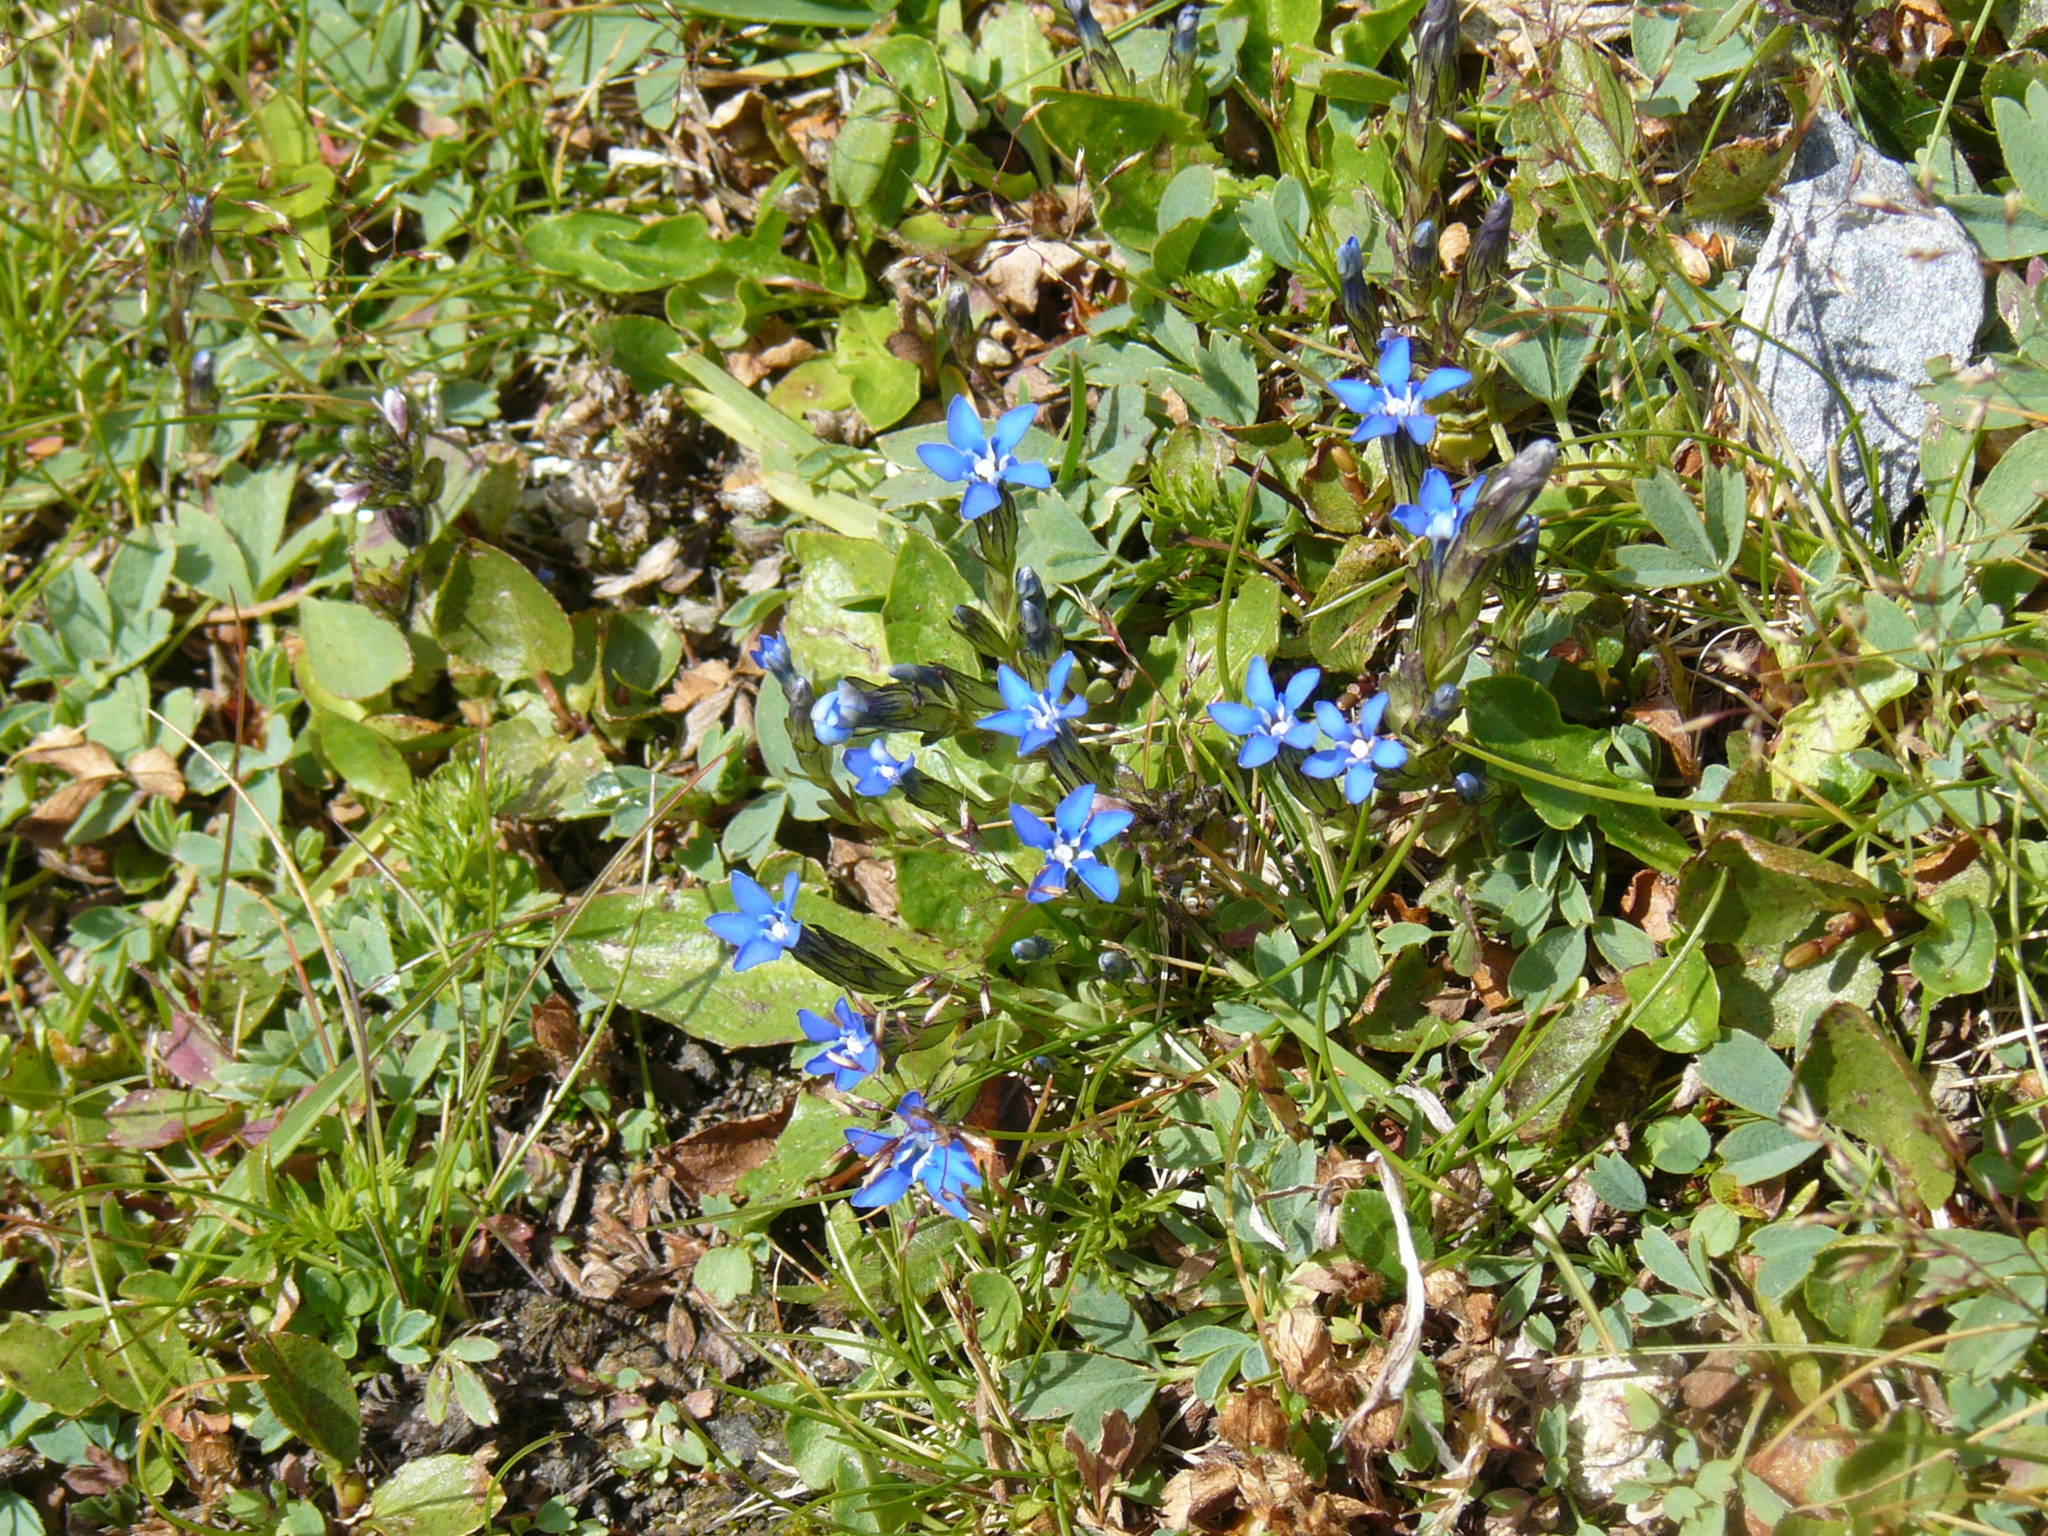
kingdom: Plantae
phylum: Tracheophyta
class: Magnoliopsida
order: Gentianales
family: Gentianaceae
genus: Gentiana
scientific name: Gentiana nivalis
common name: Alpine gentian
